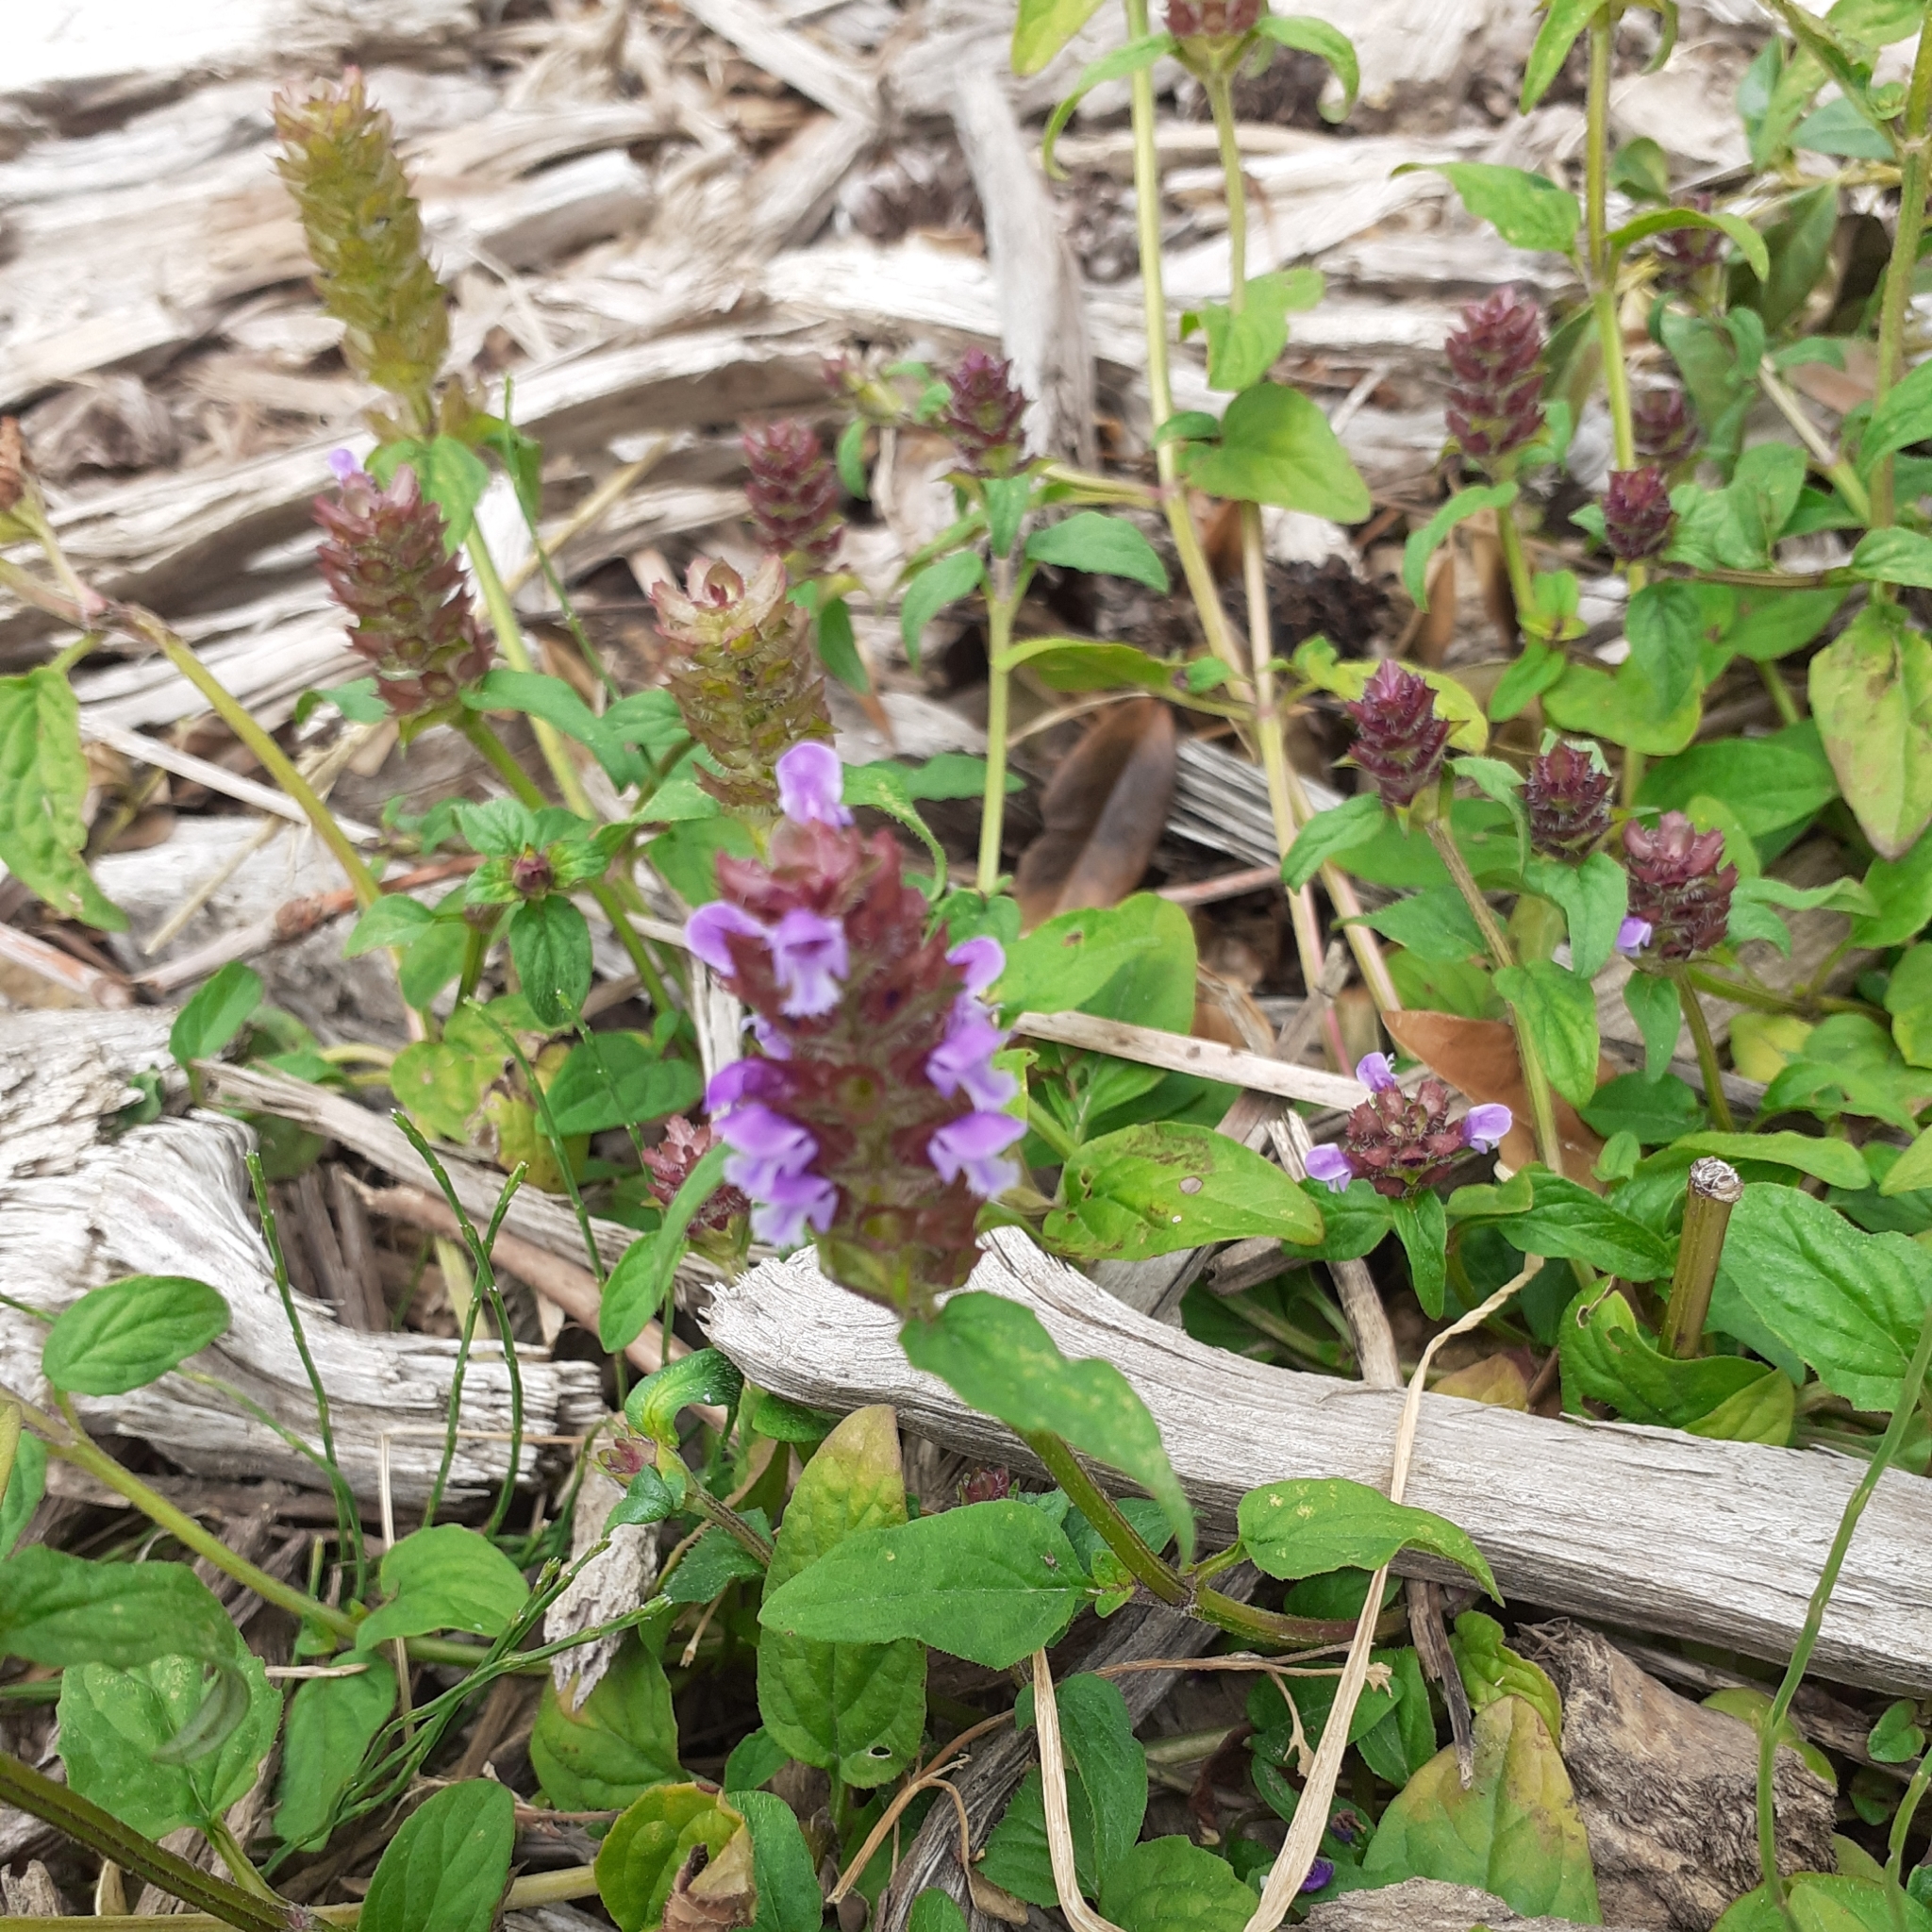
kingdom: Plantae
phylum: Tracheophyta
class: Magnoliopsida
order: Lamiales
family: Lamiaceae
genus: Prunella
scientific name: Prunella vulgaris
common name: Heal-all
